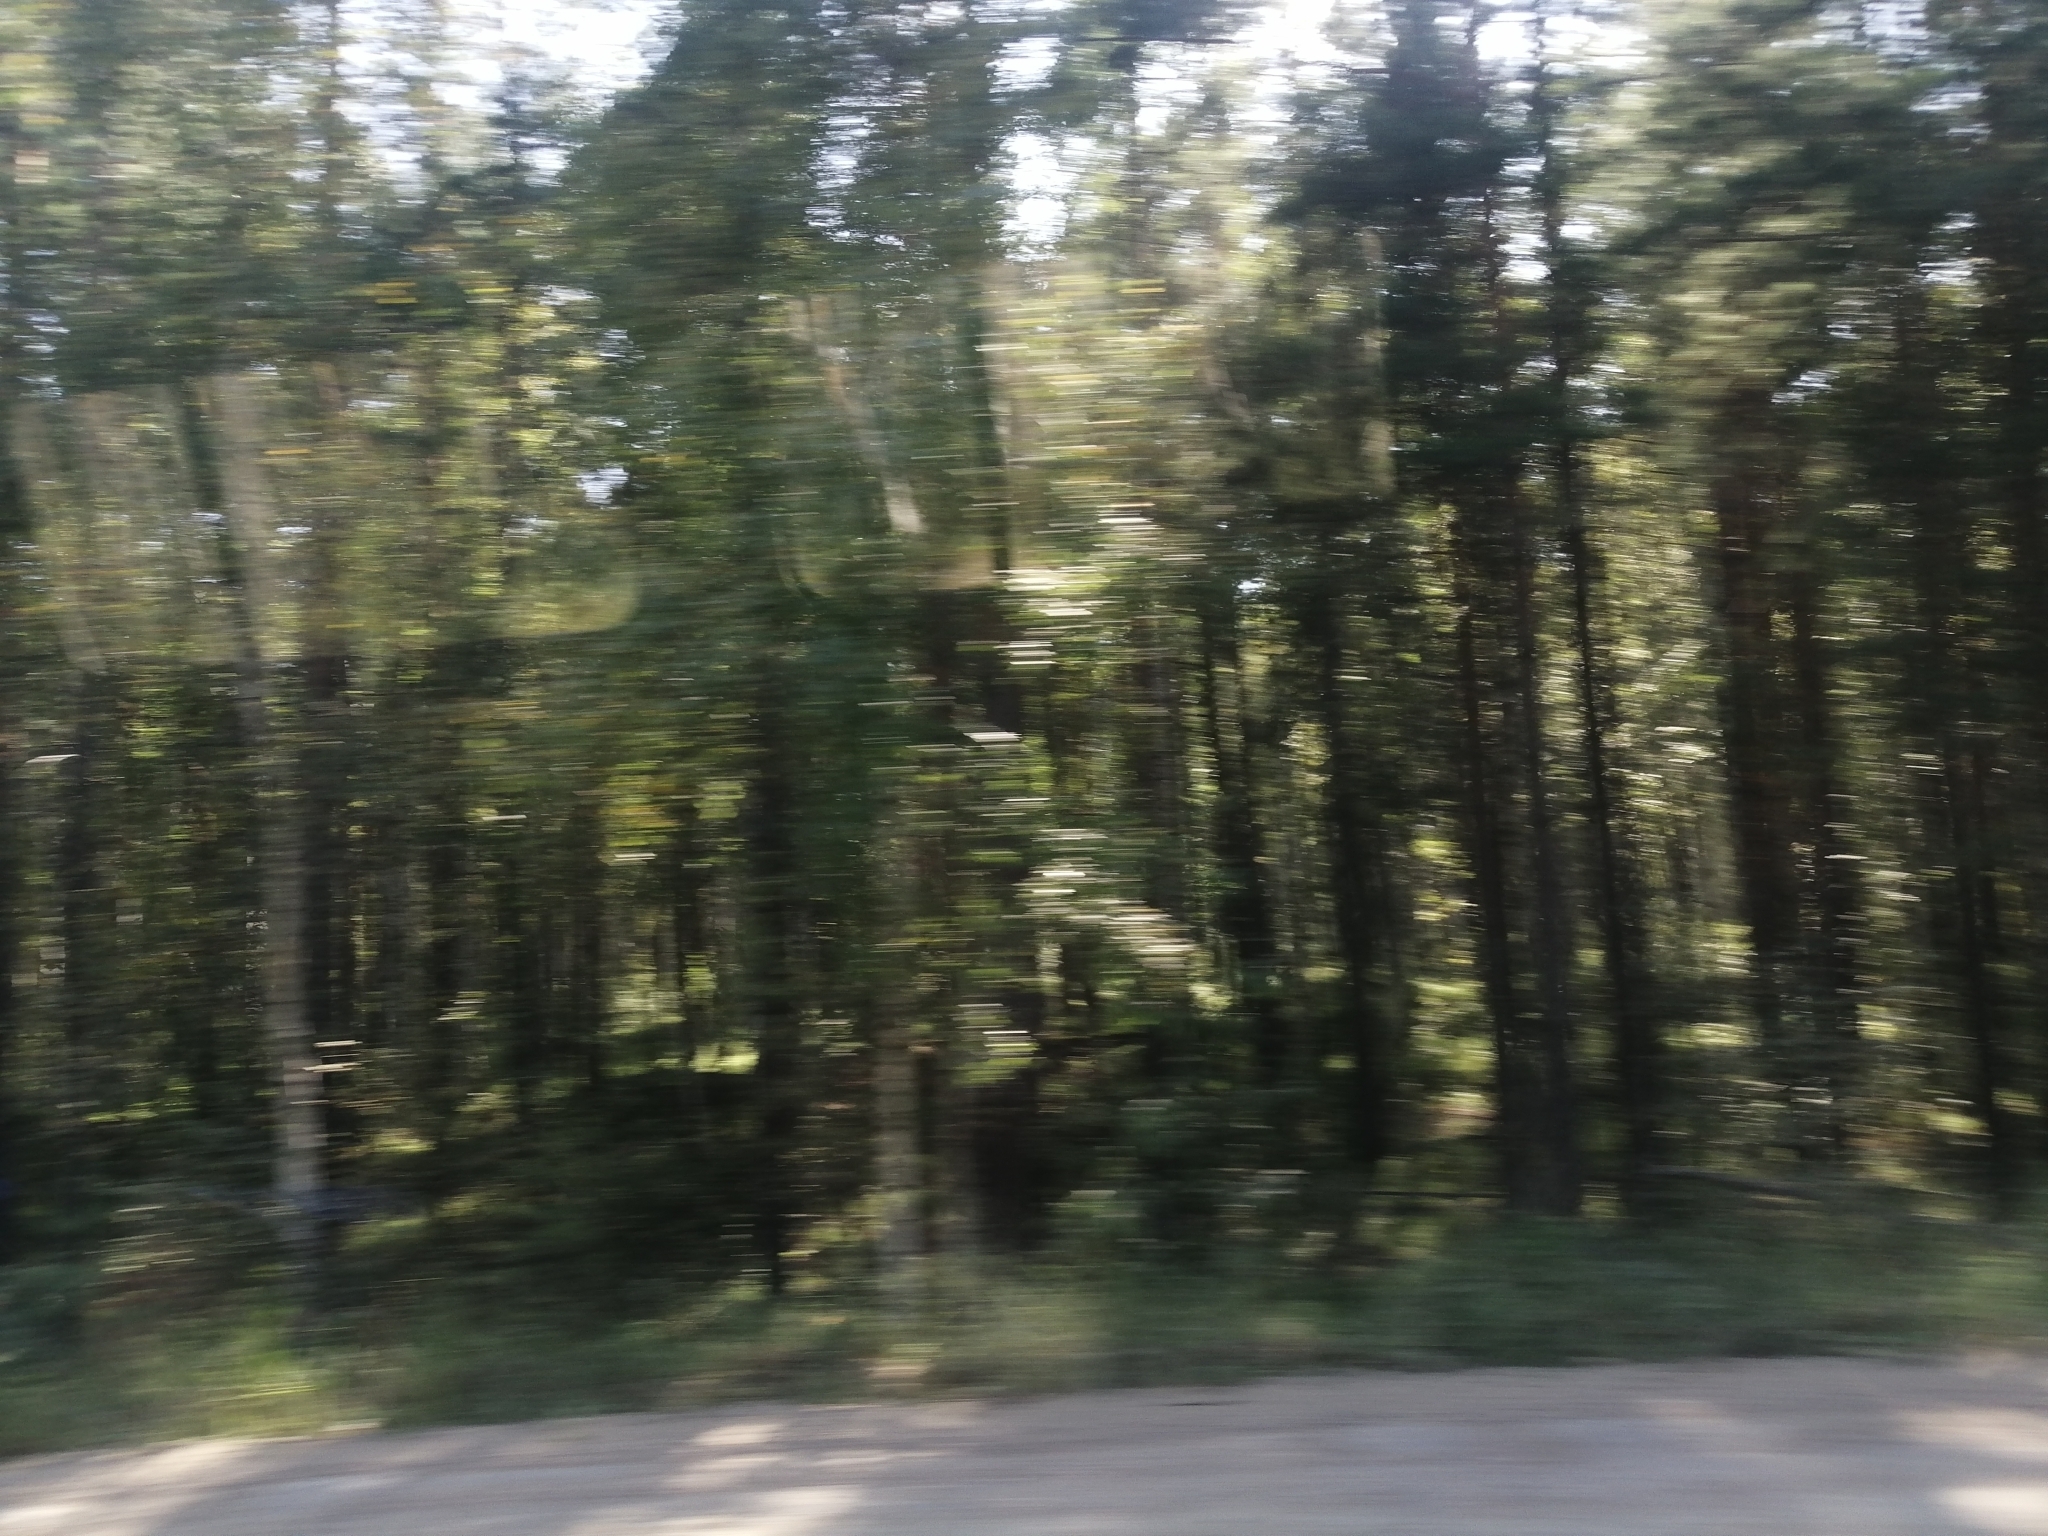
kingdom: Plantae
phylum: Tracheophyta
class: Pinopsida
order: Pinales
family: Pinaceae
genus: Pinus
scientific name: Pinus sylvestris
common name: Scots pine
